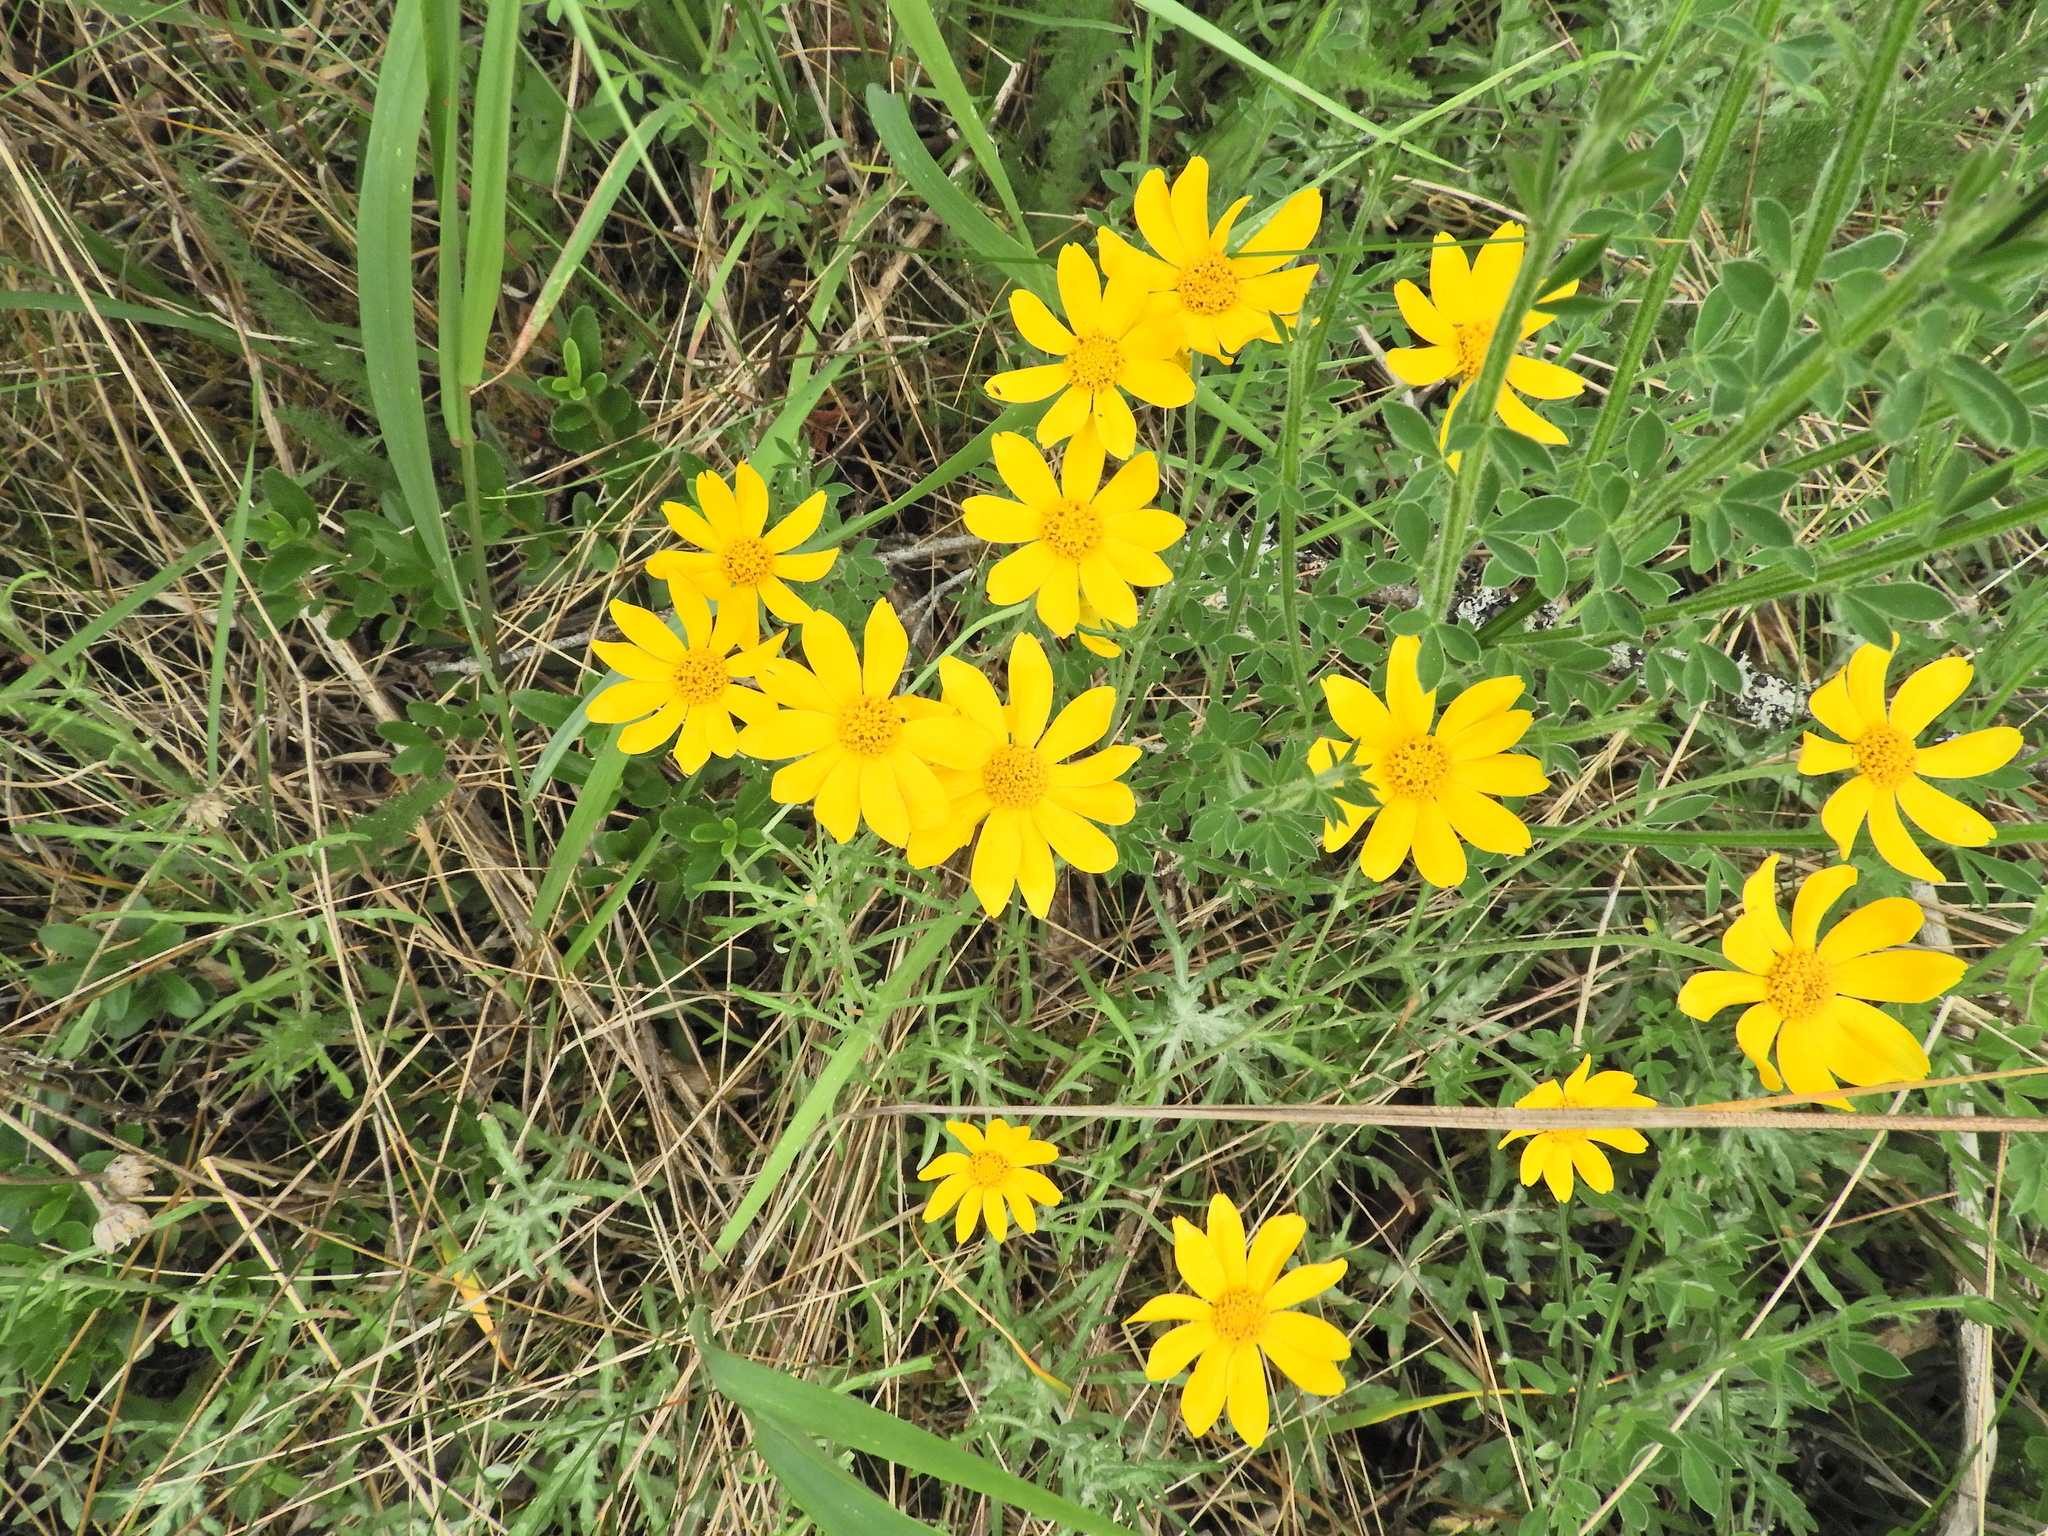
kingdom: Plantae
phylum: Tracheophyta
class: Magnoliopsida
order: Asterales
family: Asteraceae
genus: Eriophyllum
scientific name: Eriophyllum lanatum
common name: Common woolly-sunflower
